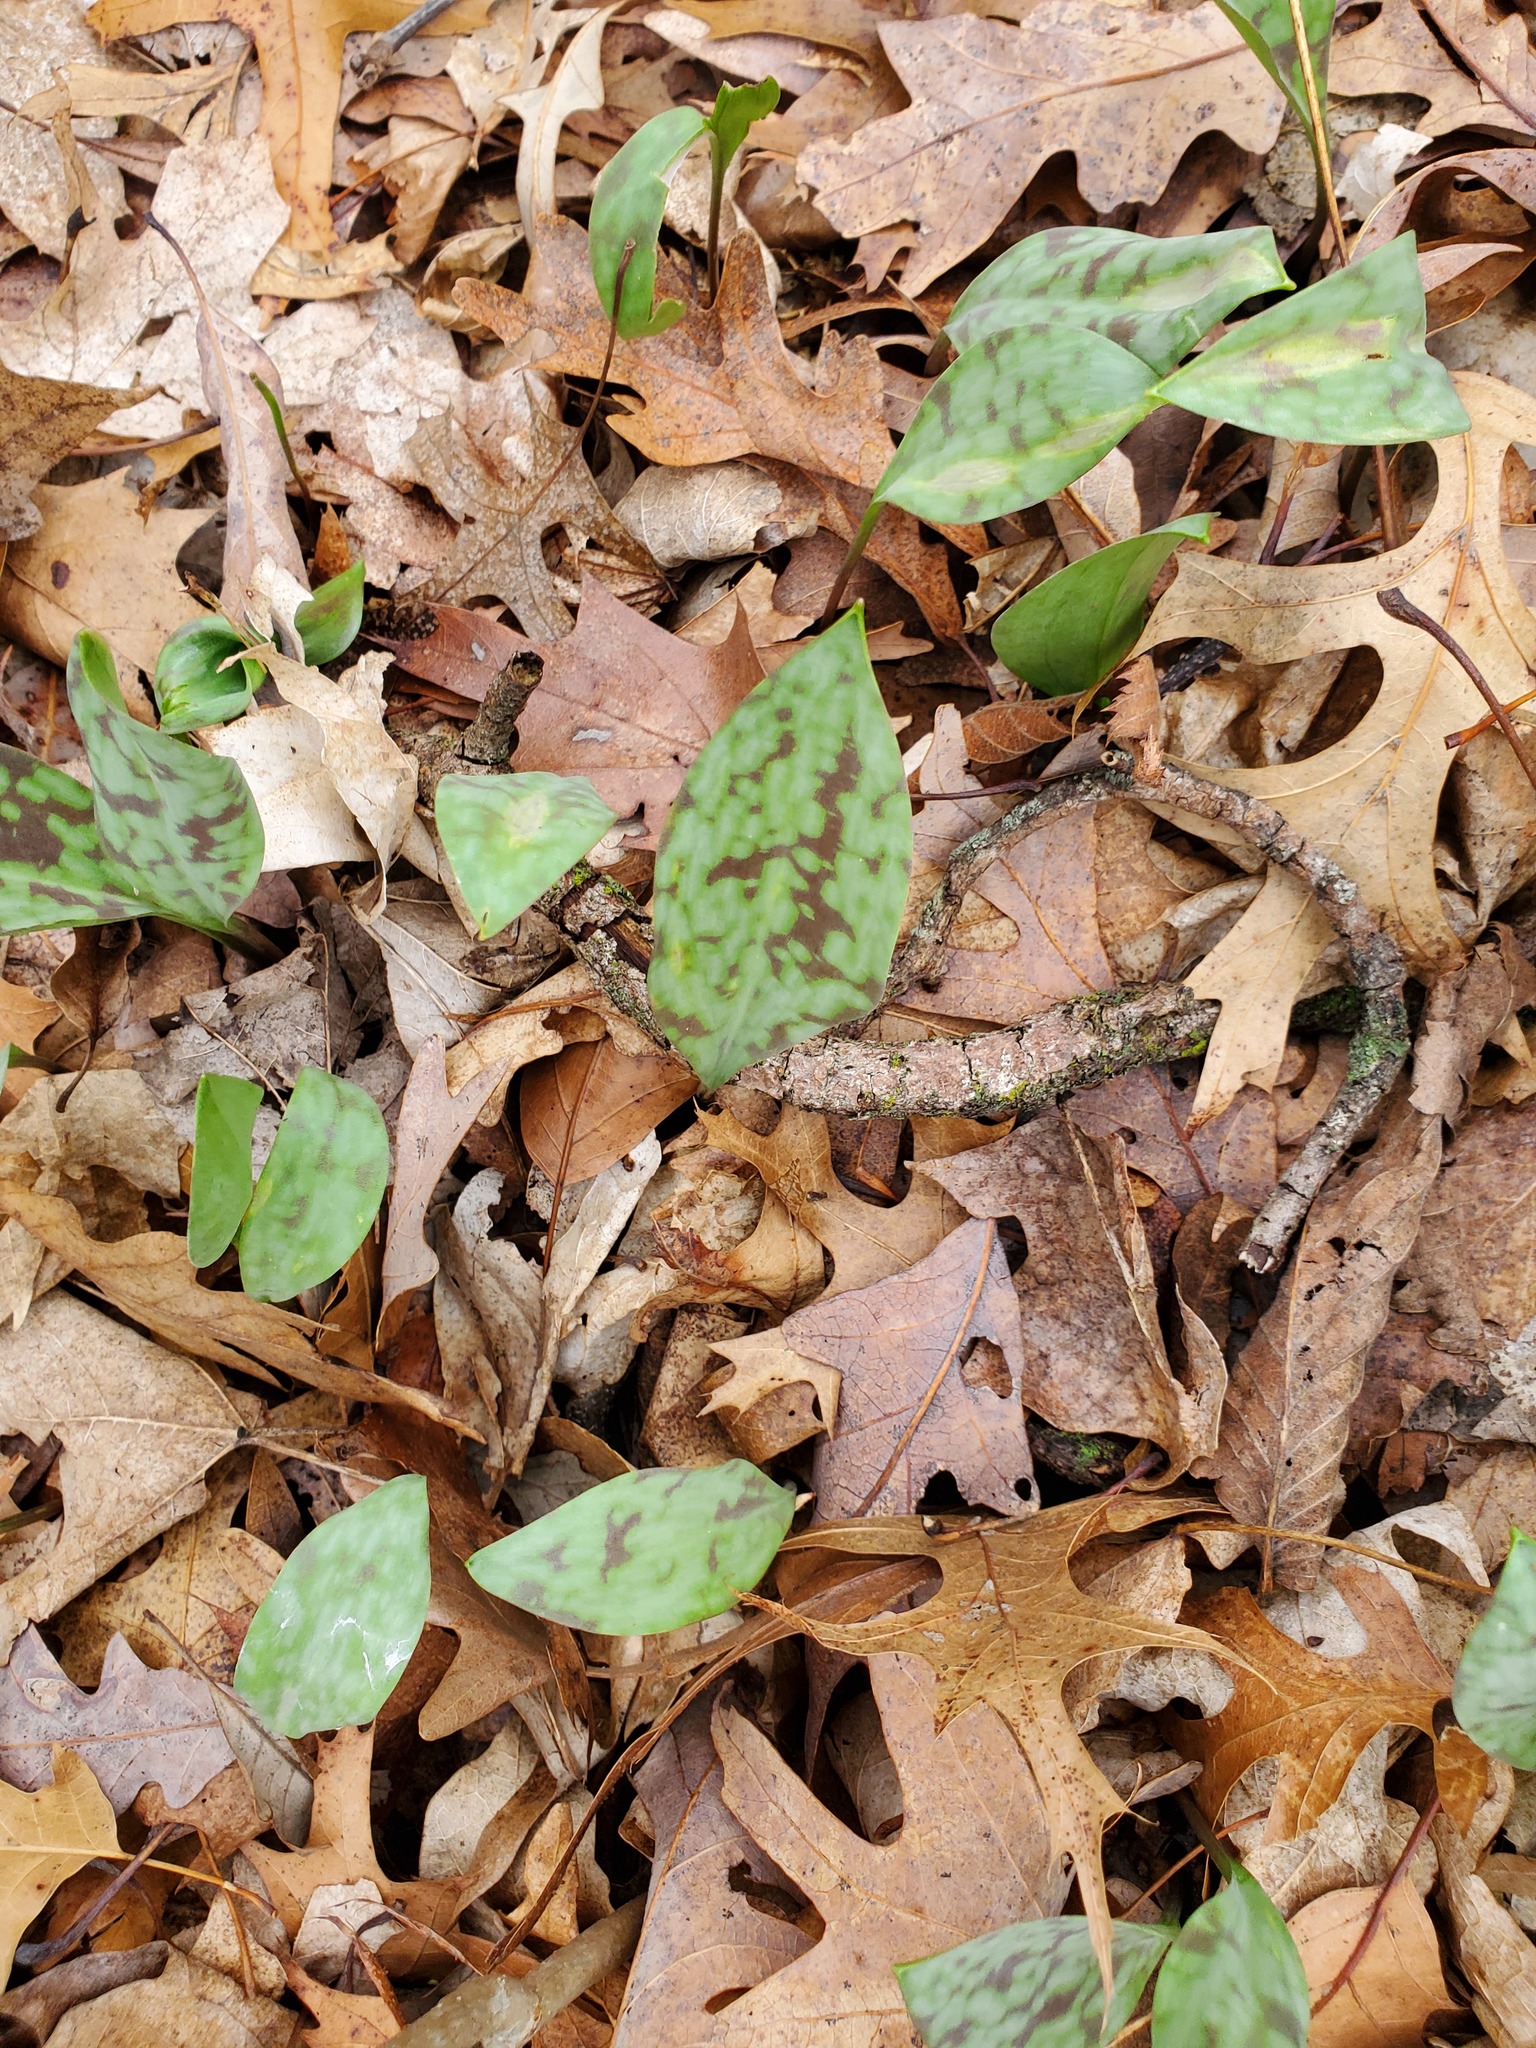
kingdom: Plantae
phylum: Tracheophyta
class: Liliopsida
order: Liliales
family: Liliaceae
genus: Erythronium
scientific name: Erythronium albidum
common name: White trout-lily
